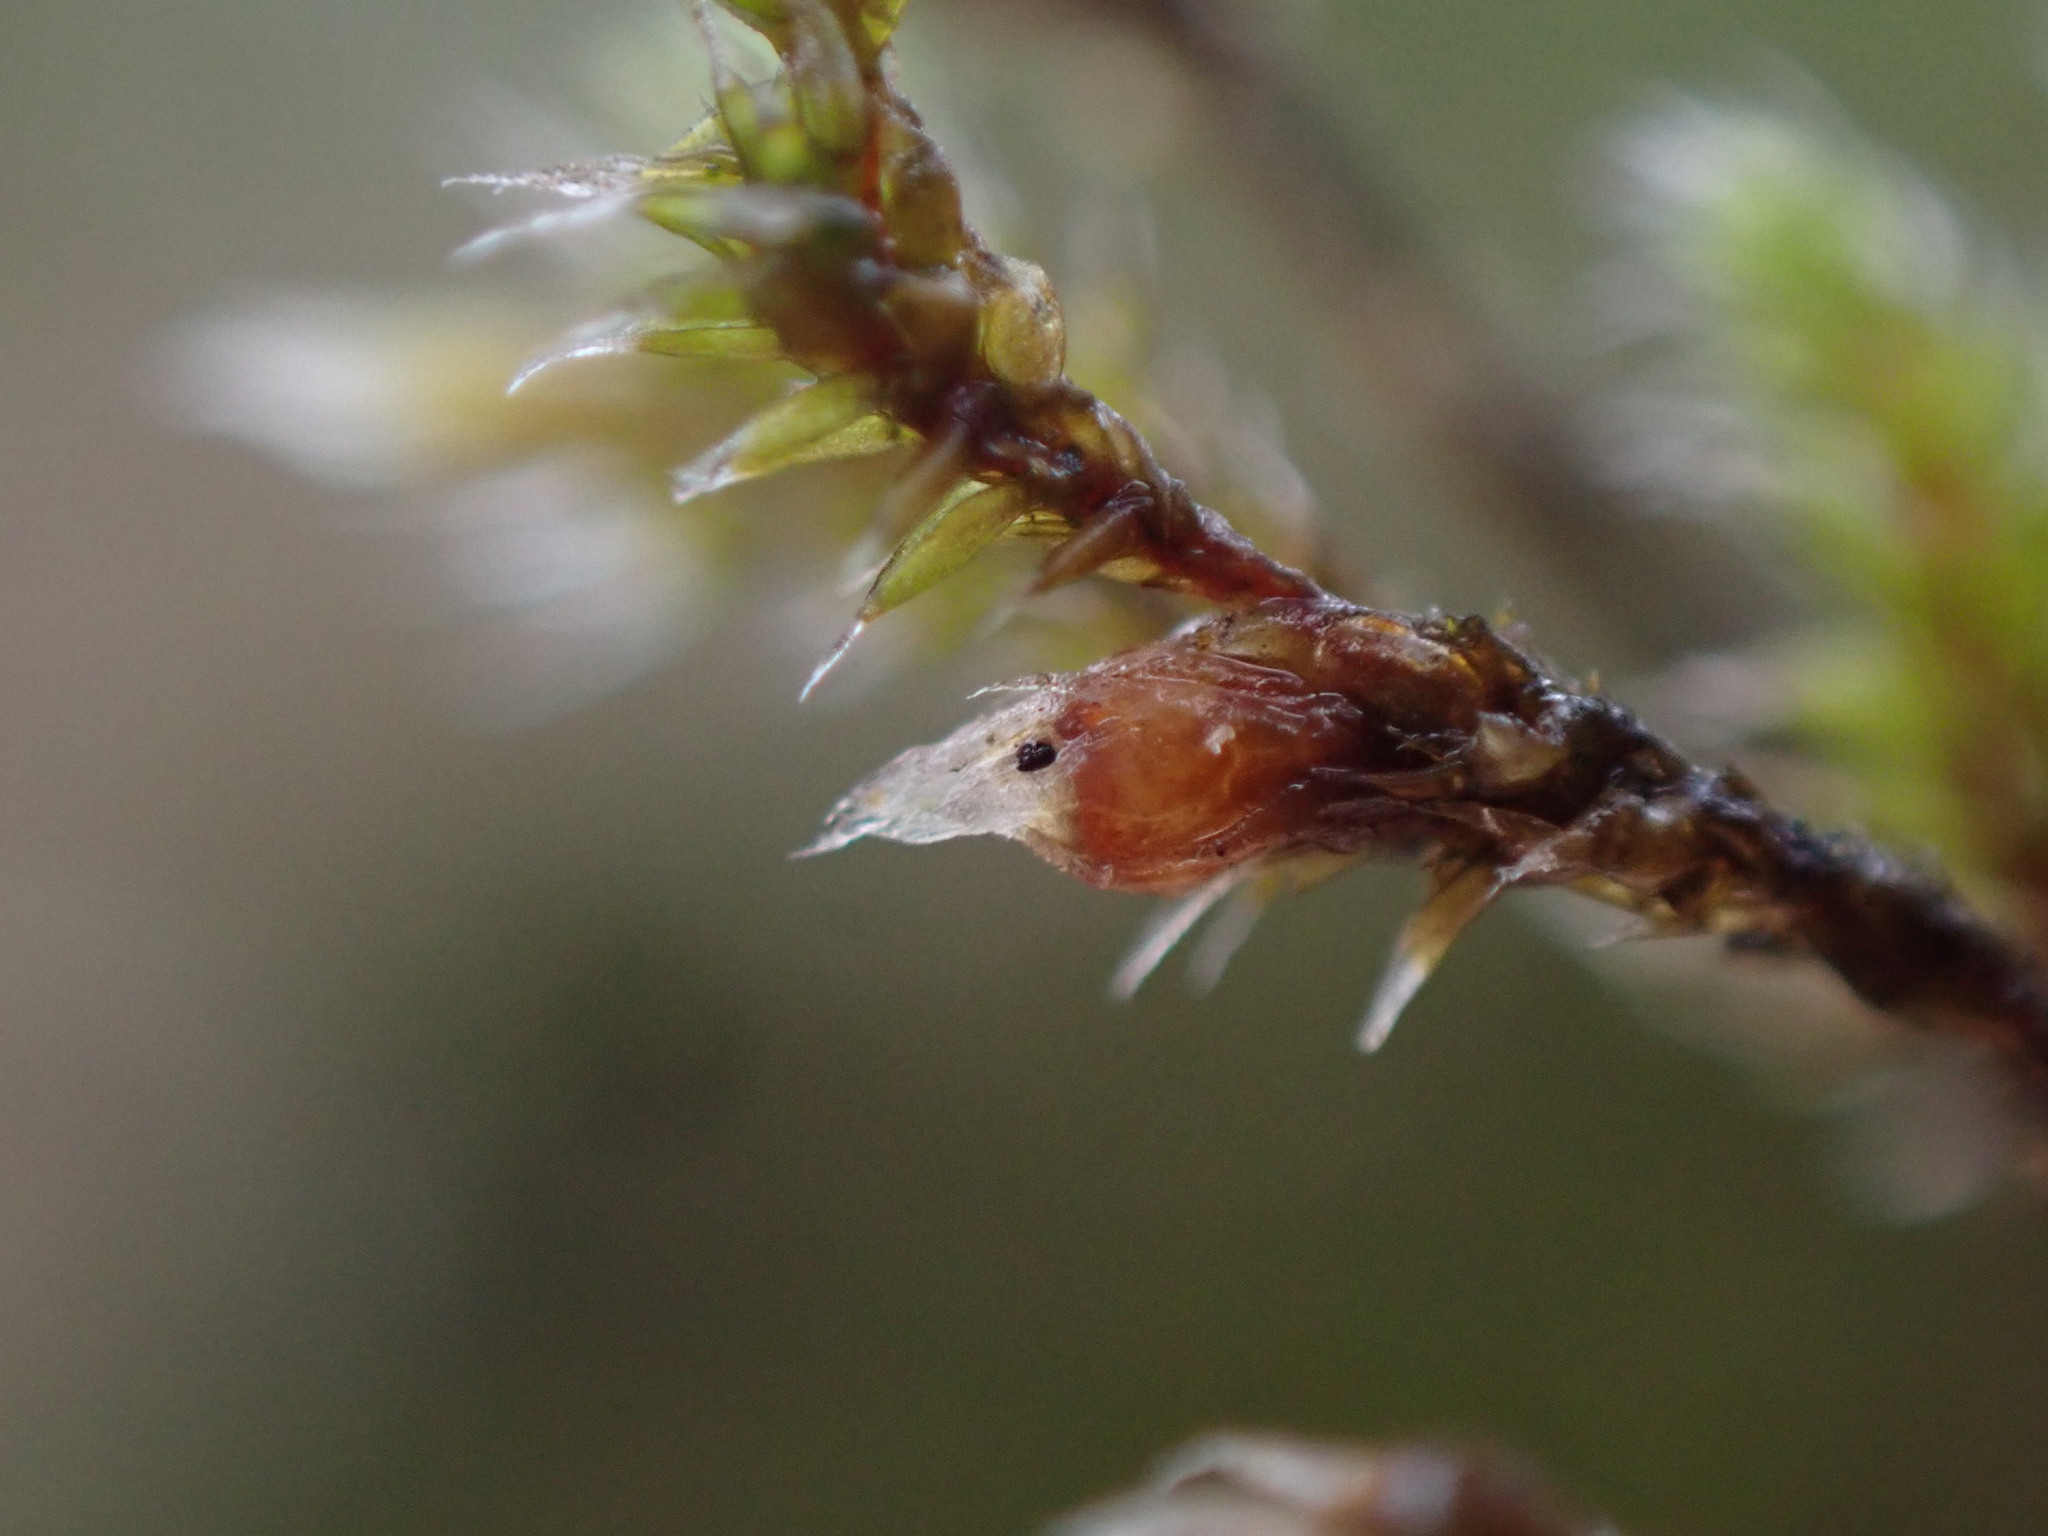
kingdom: Plantae
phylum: Bryophyta
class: Bryopsida
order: Hedwigiales
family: Hedwigiaceae
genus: Hedwigia
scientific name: Hedwigia stellata
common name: Starry hoar-moss
